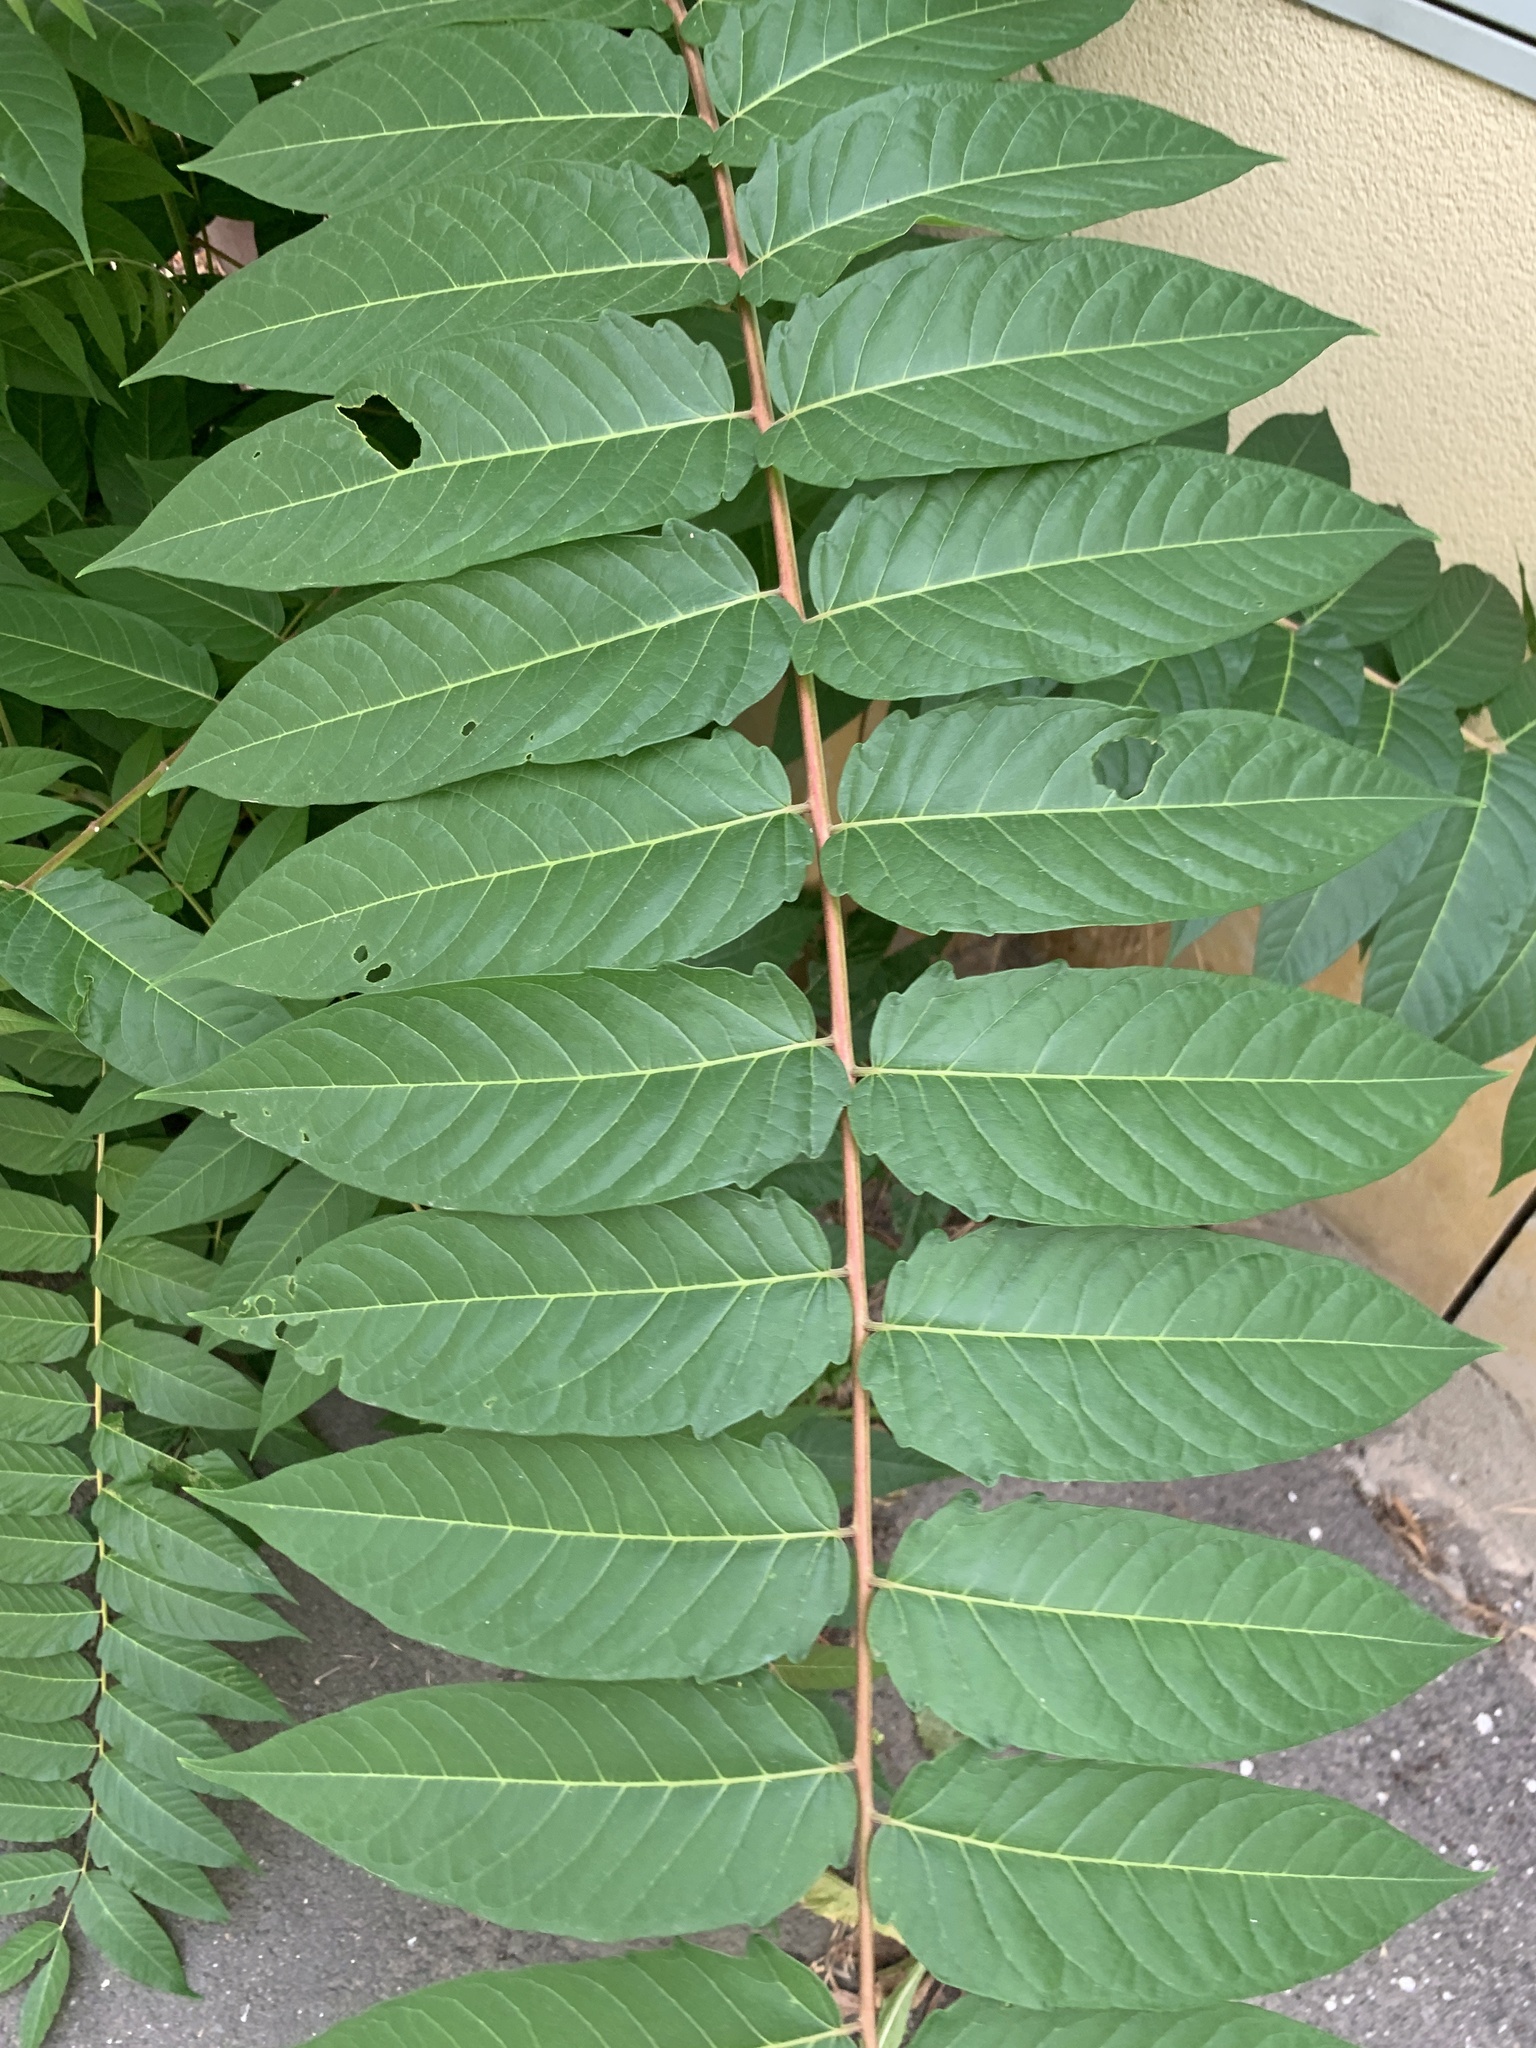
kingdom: Plantae
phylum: Tracheophyta
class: Magnoliopsida
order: Sapindales
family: Simaroubaceae
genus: Ailanthus
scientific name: Ailanthus altissima
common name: Tree-of-heaven
